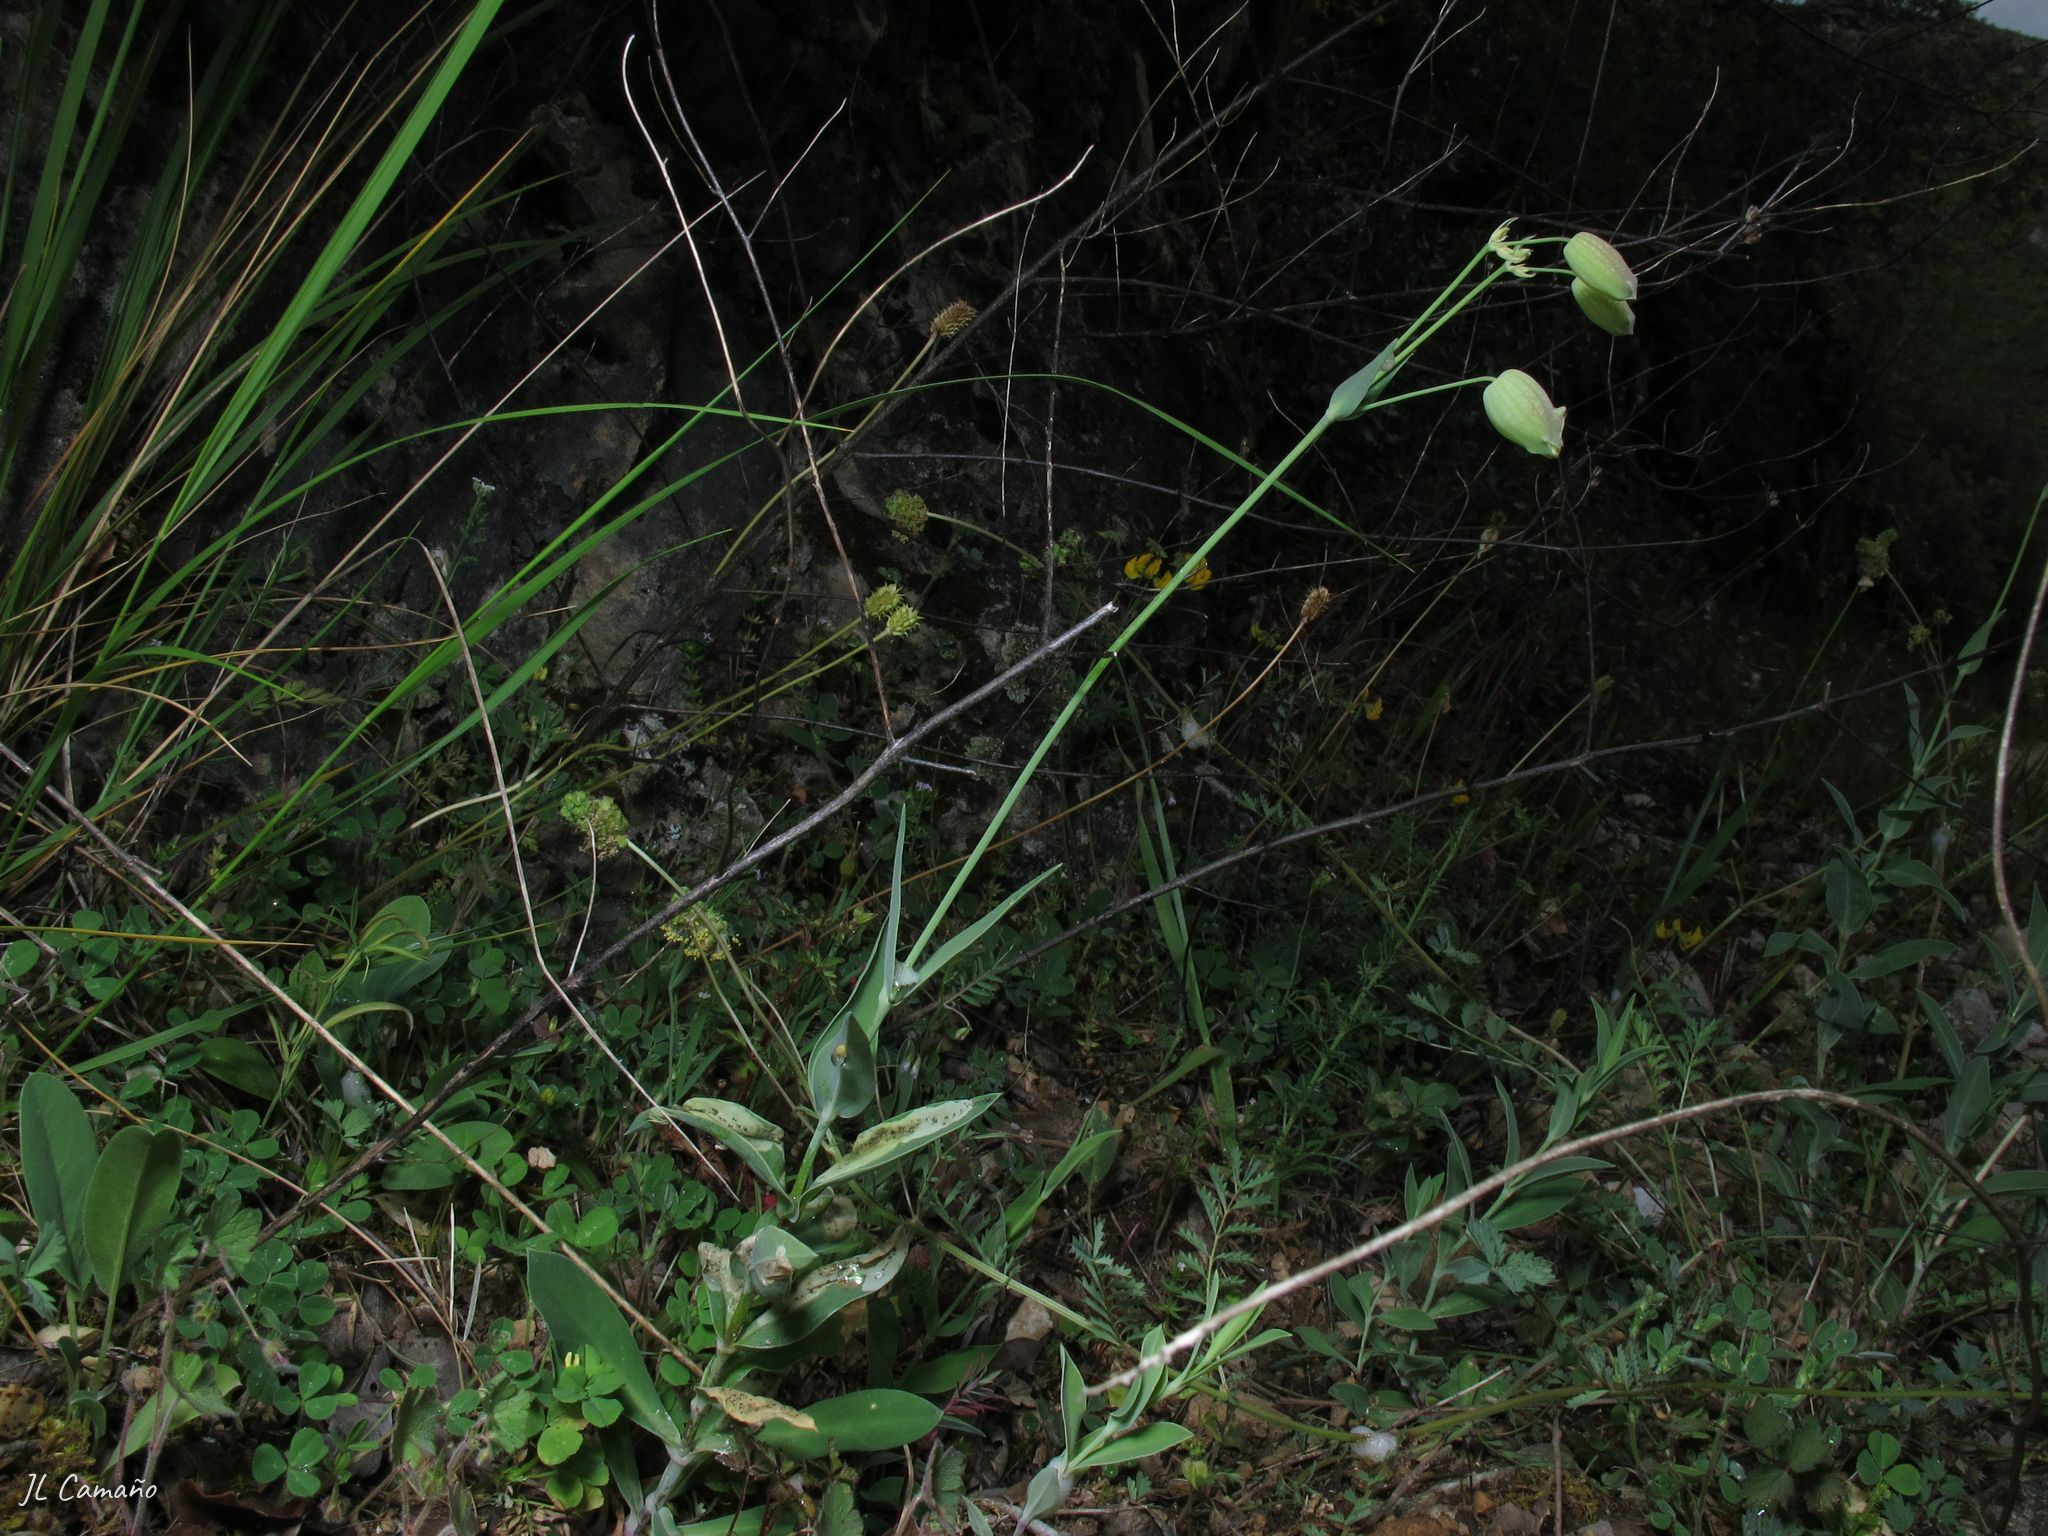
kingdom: Plantae
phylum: Tracheophyta
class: Magnoliopsida
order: Caryophyllales
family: Caryophyllaceae
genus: Silene
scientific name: Silene vulgaris
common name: Bladder campion
